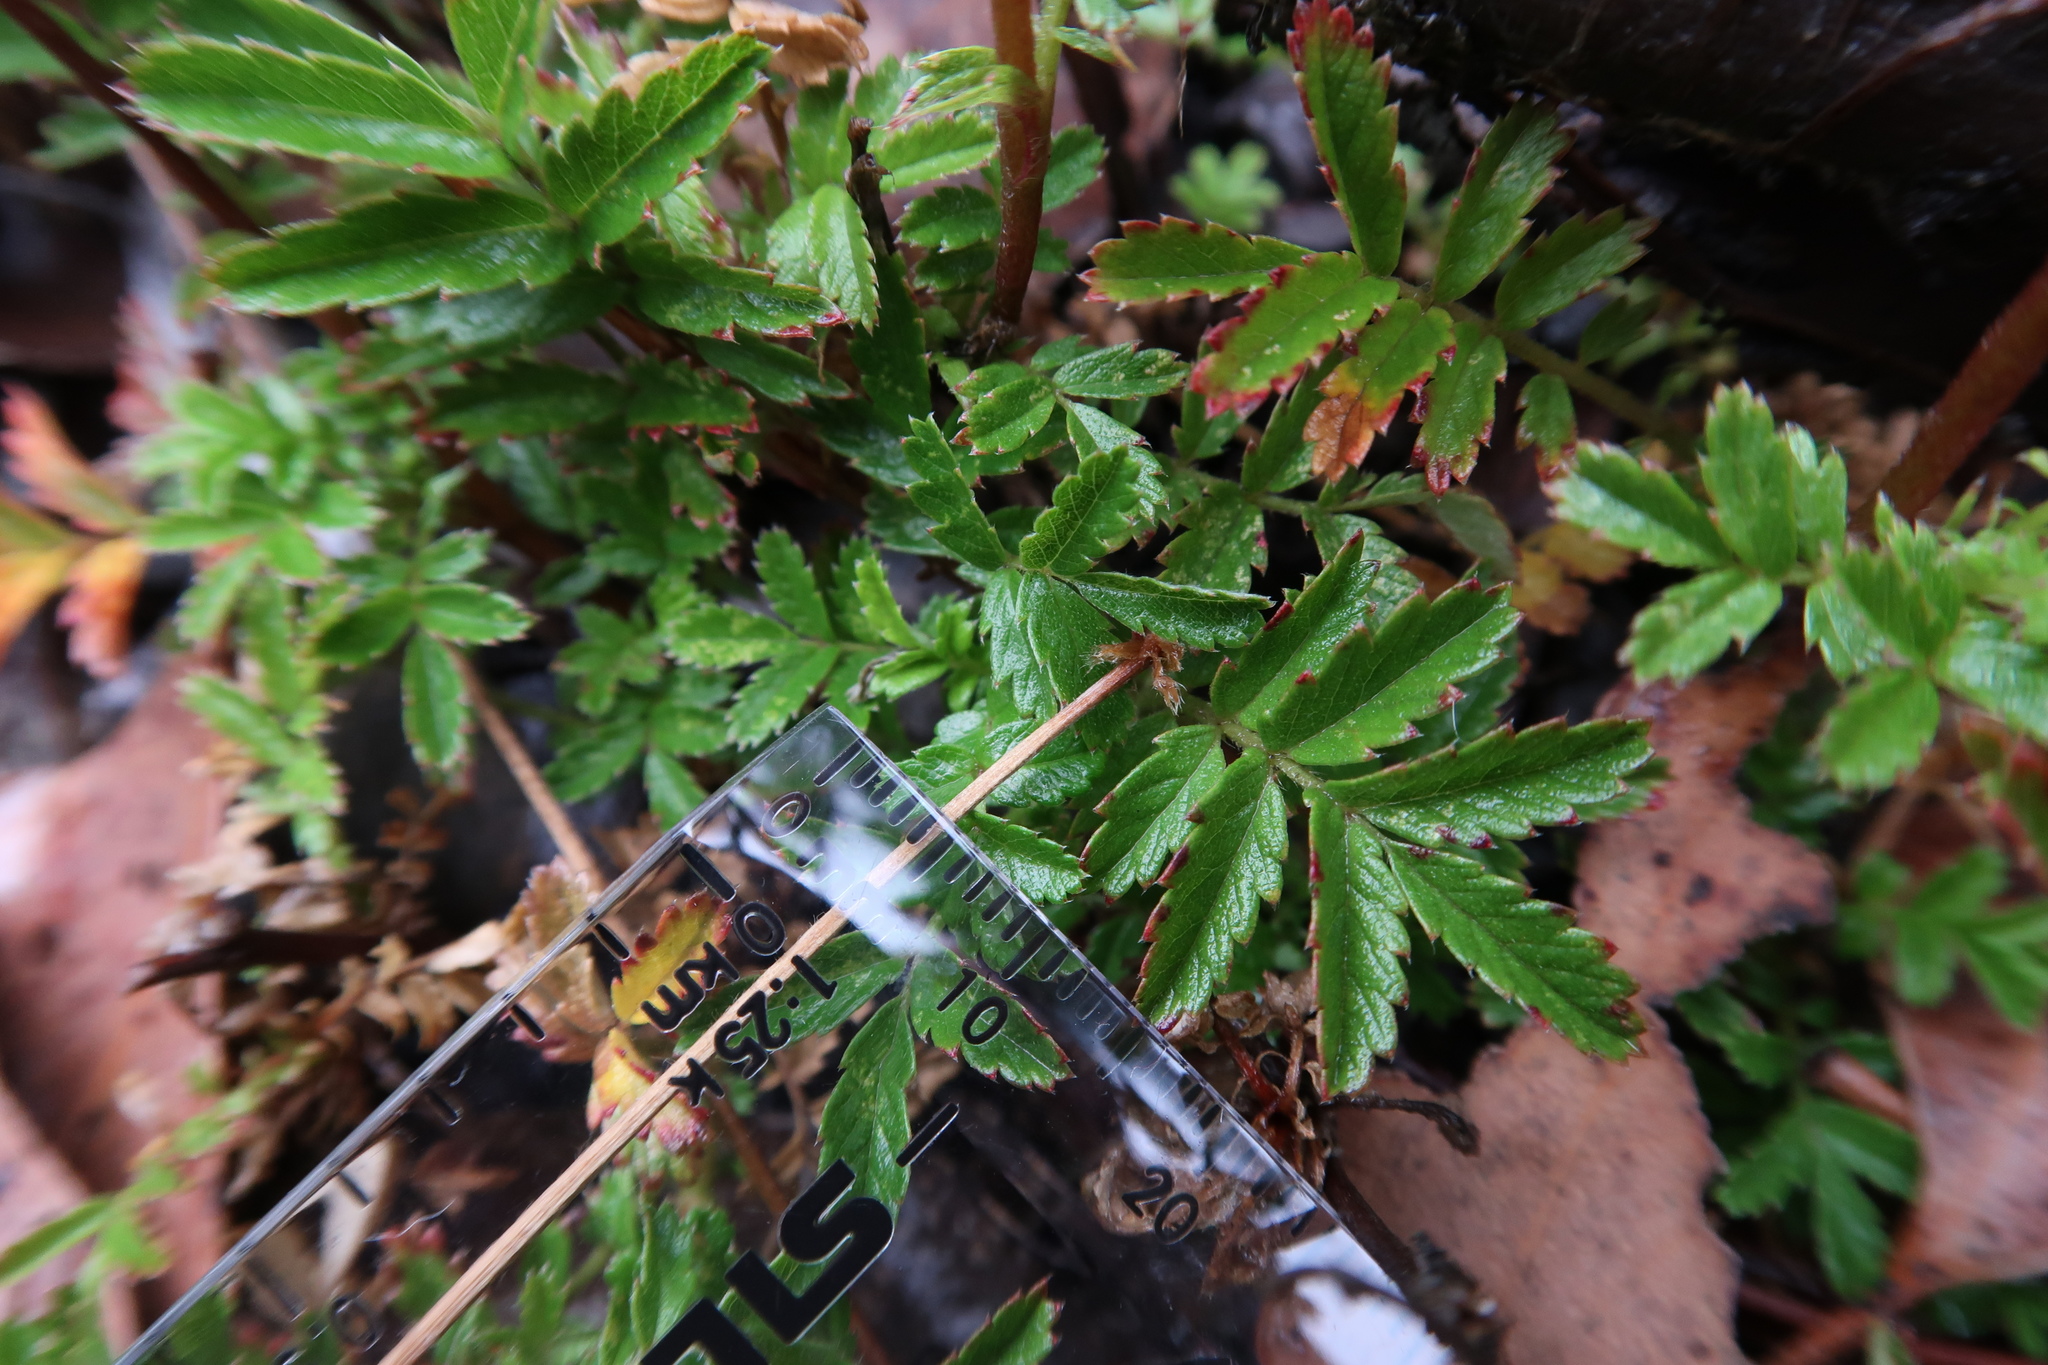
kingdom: Plantae
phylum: Tracheophyta
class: Magnoliopsida
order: Rosales
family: Rosaceae
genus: Acaena
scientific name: Acaena novae-zelandiae
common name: Pirri-pirri-bur
